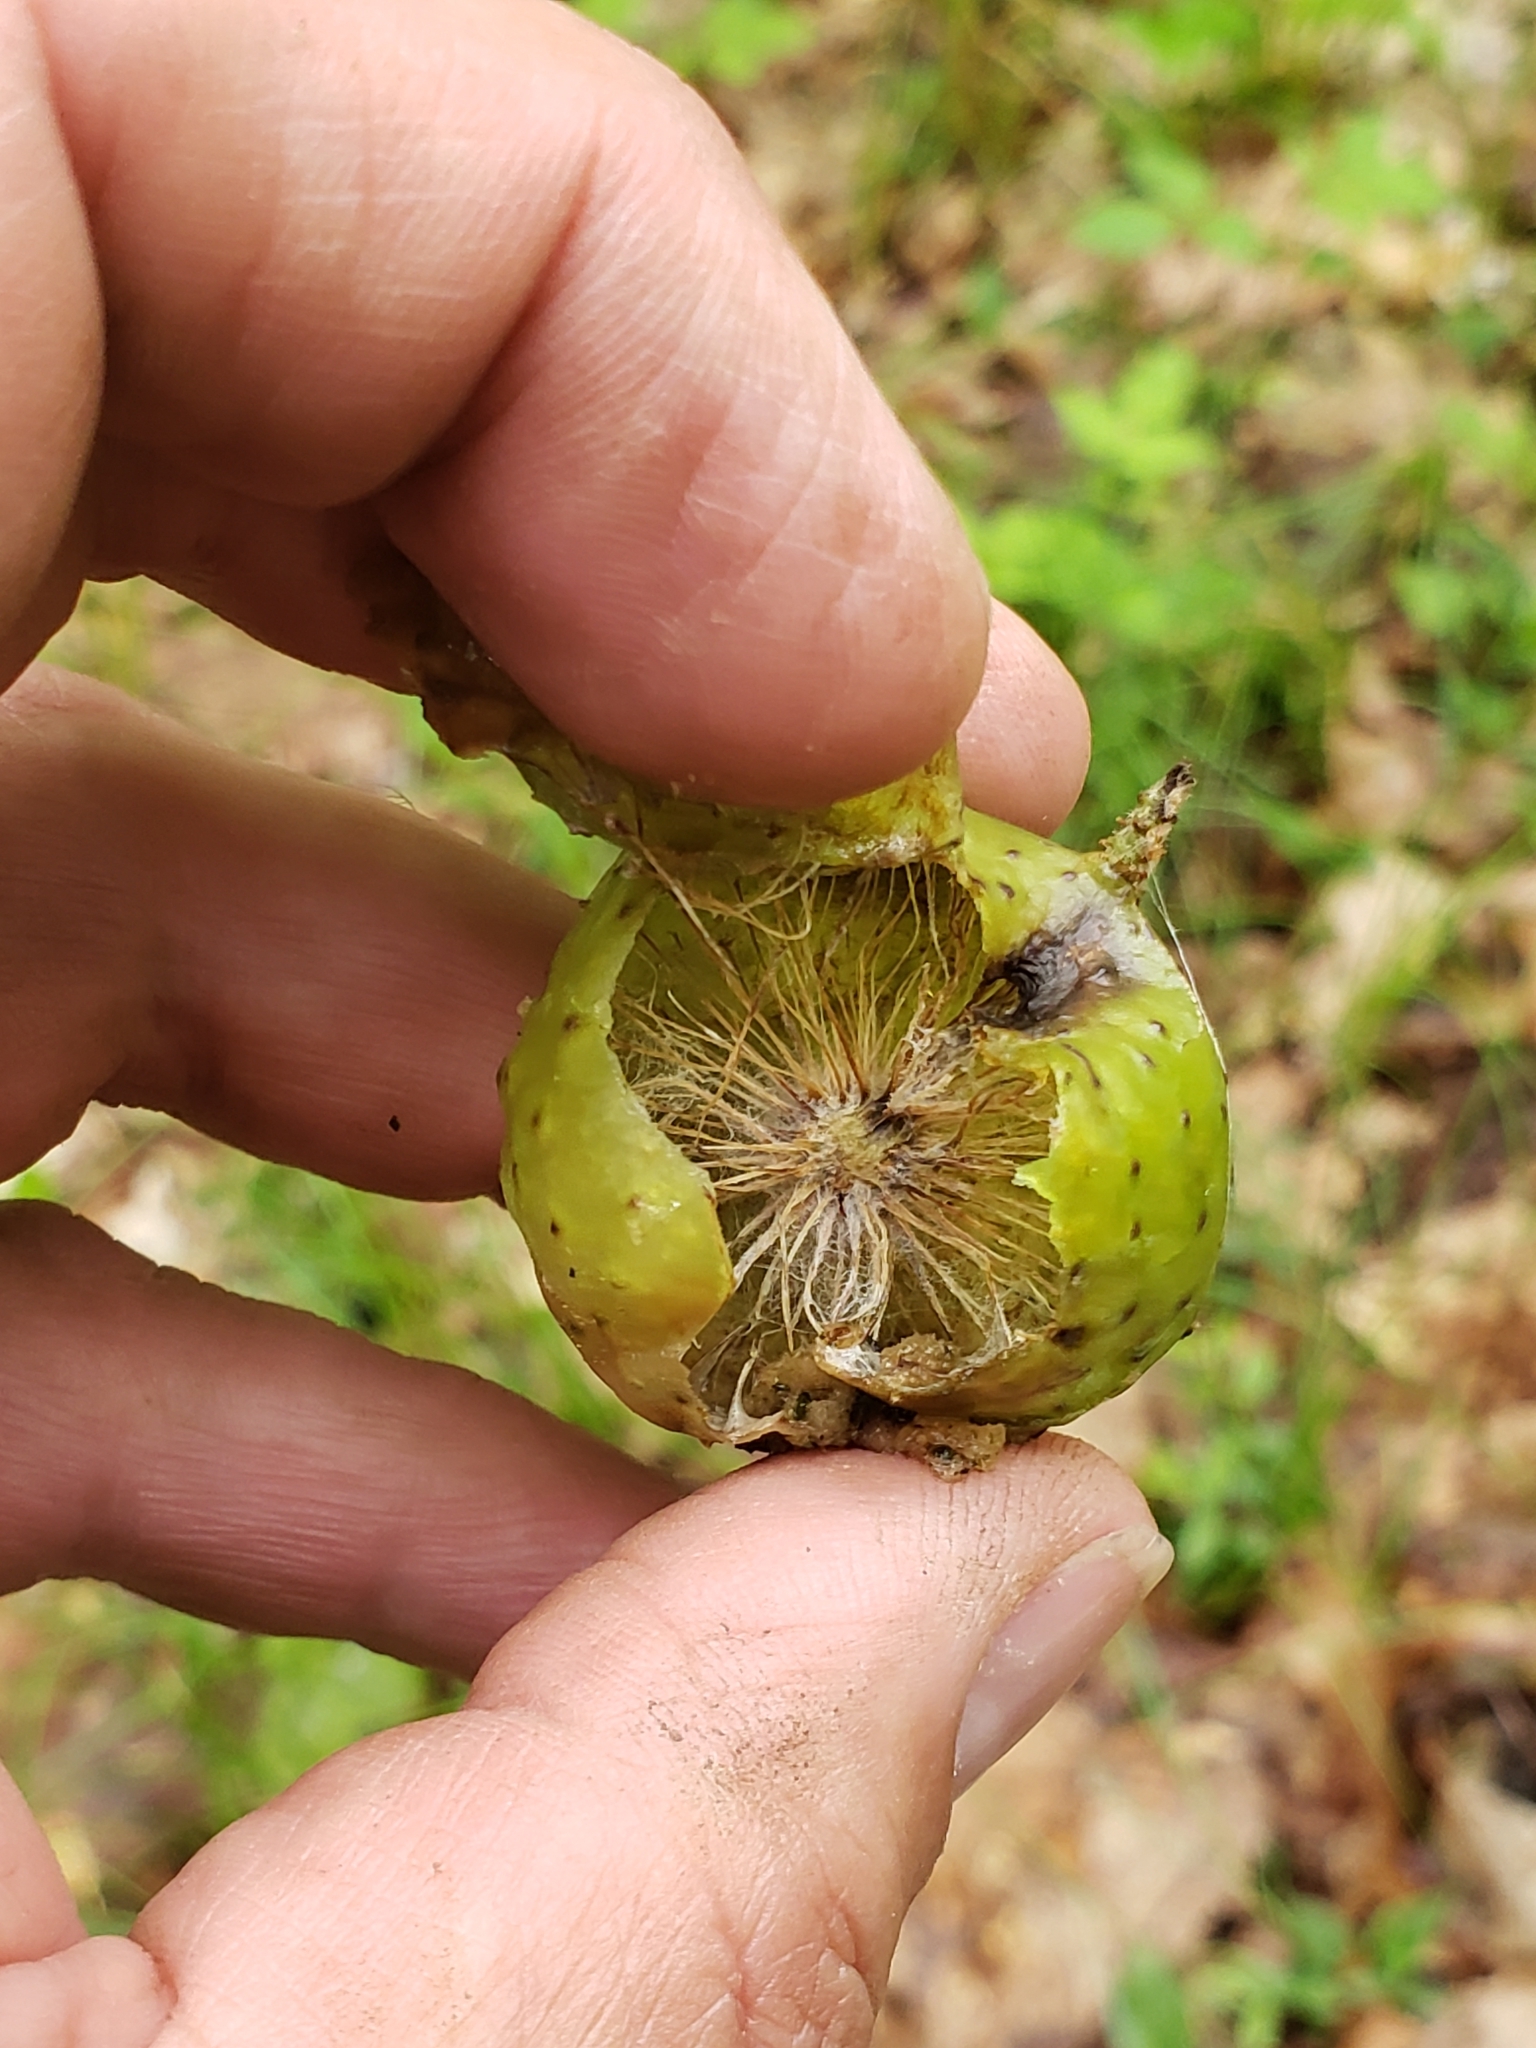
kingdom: Animalia
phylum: Arthropoda
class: Insecta
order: Hymenoptera
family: Cynipidae
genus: Amphibolips
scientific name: Amphibolips
